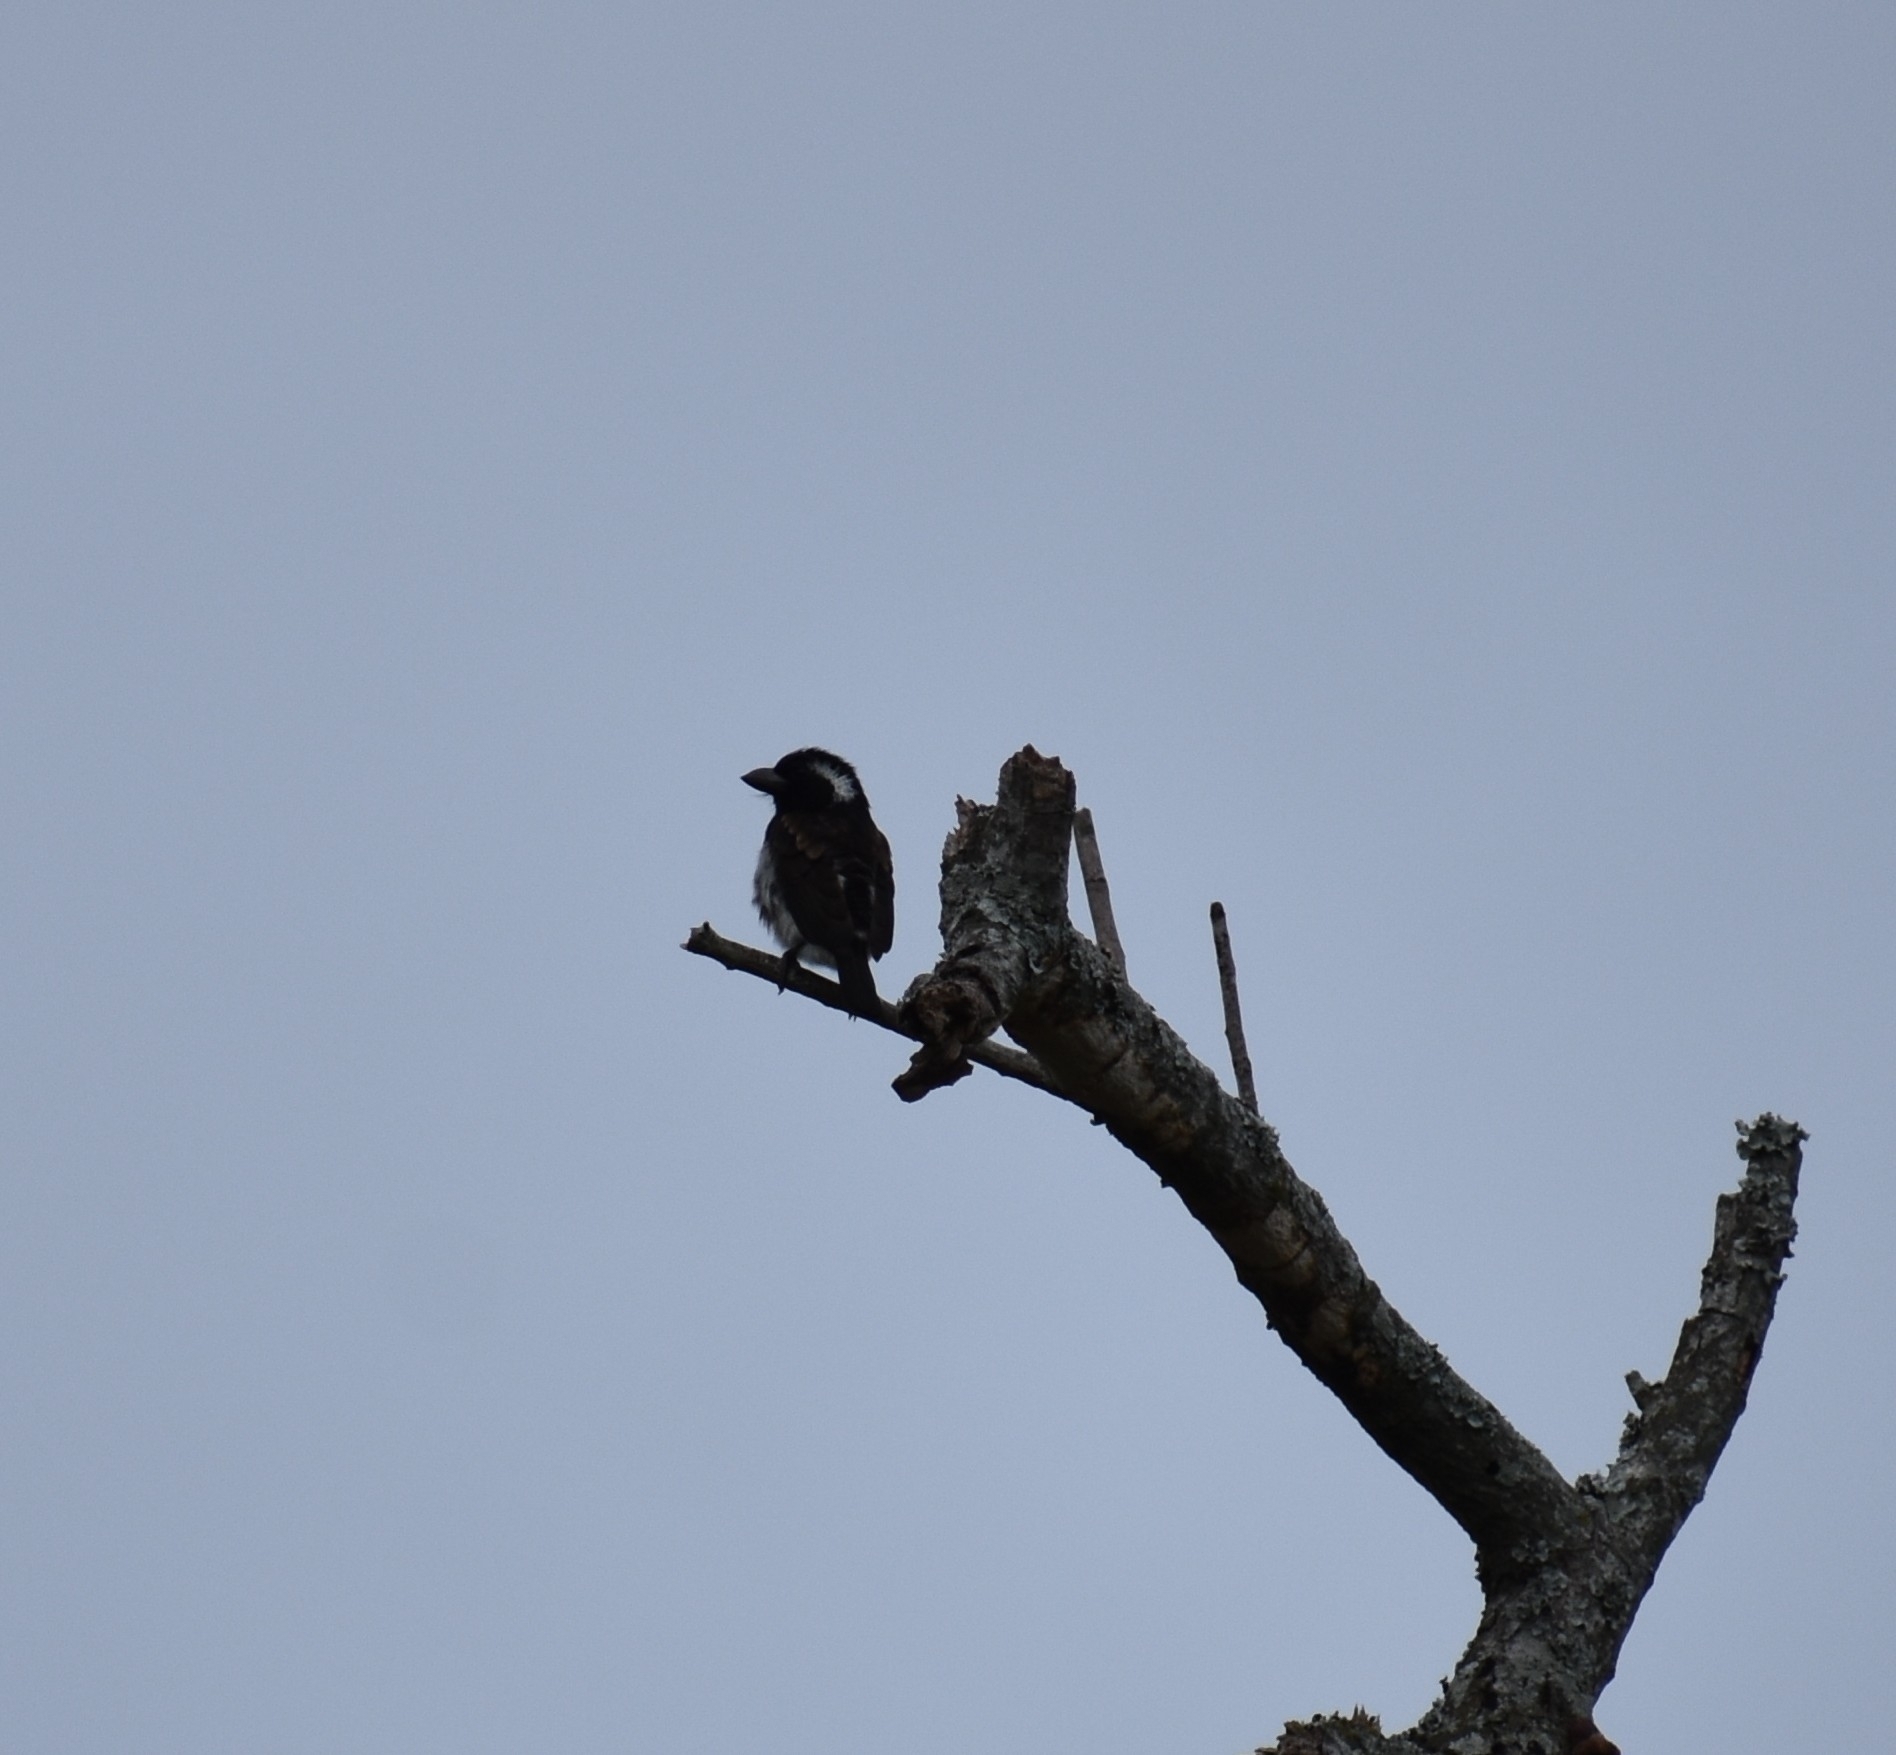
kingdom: Animalia
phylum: Chordata
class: Aves
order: Piciformes
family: Lybiidae
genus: Stactolaema
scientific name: Stactolaema leucotis
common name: White-eared barbet
